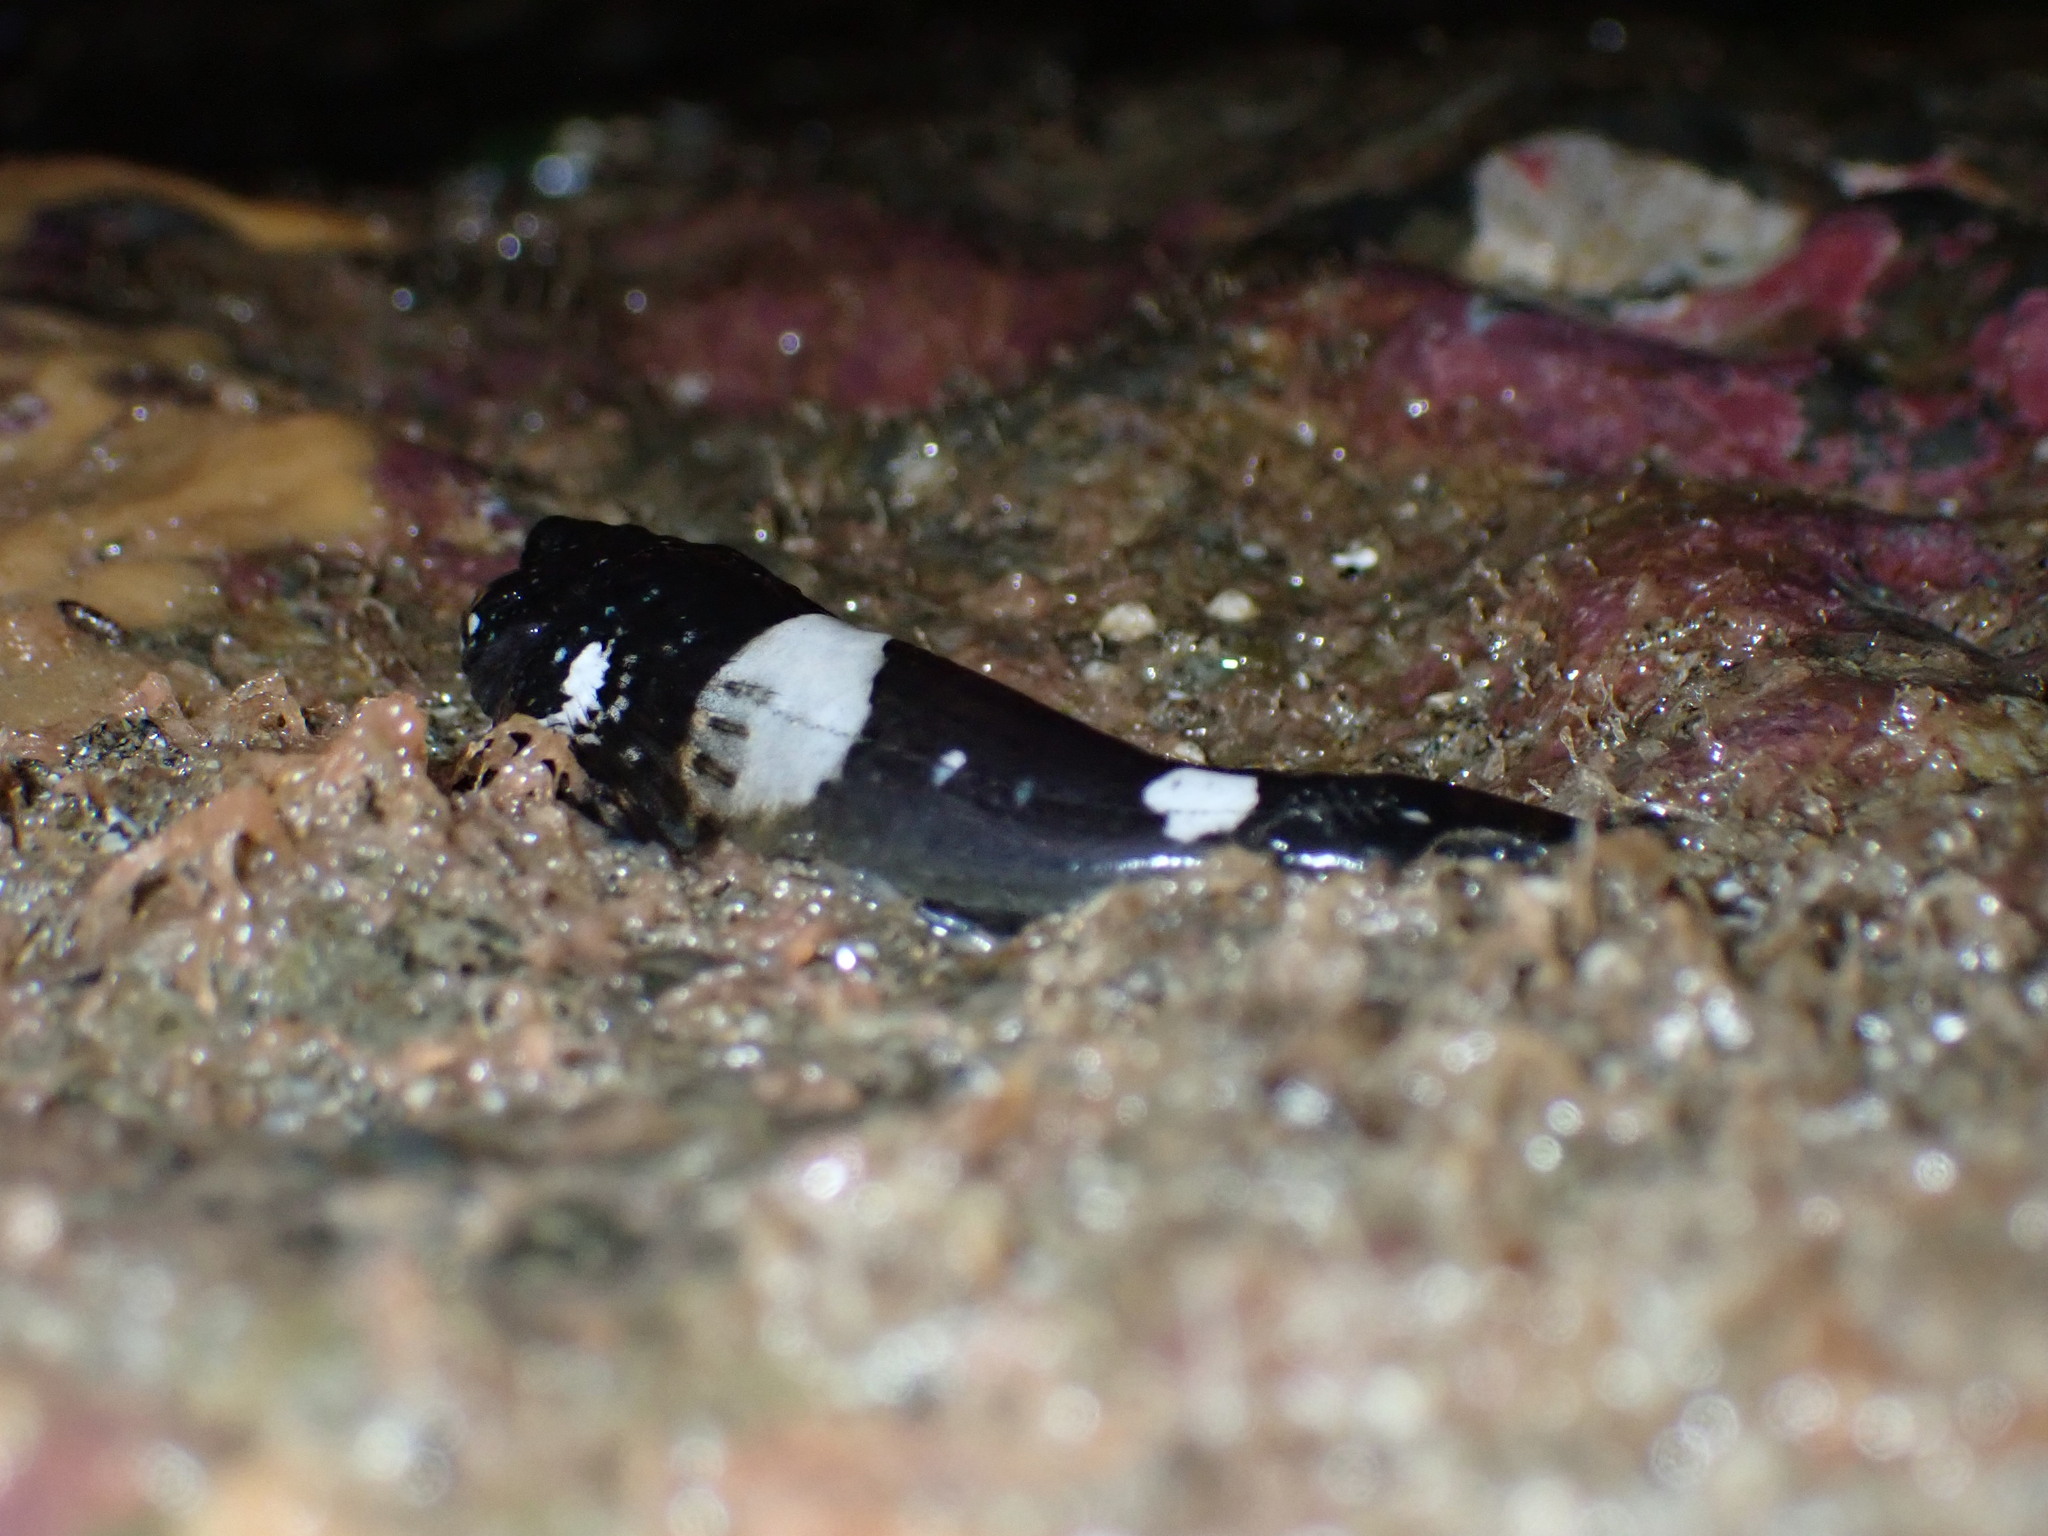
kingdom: Animalia
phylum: Chordata
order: Scorpaeniformes
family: Cottidae
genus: Clinocottus
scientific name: Clinocottus globiceps
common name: Mosshead sculpin
